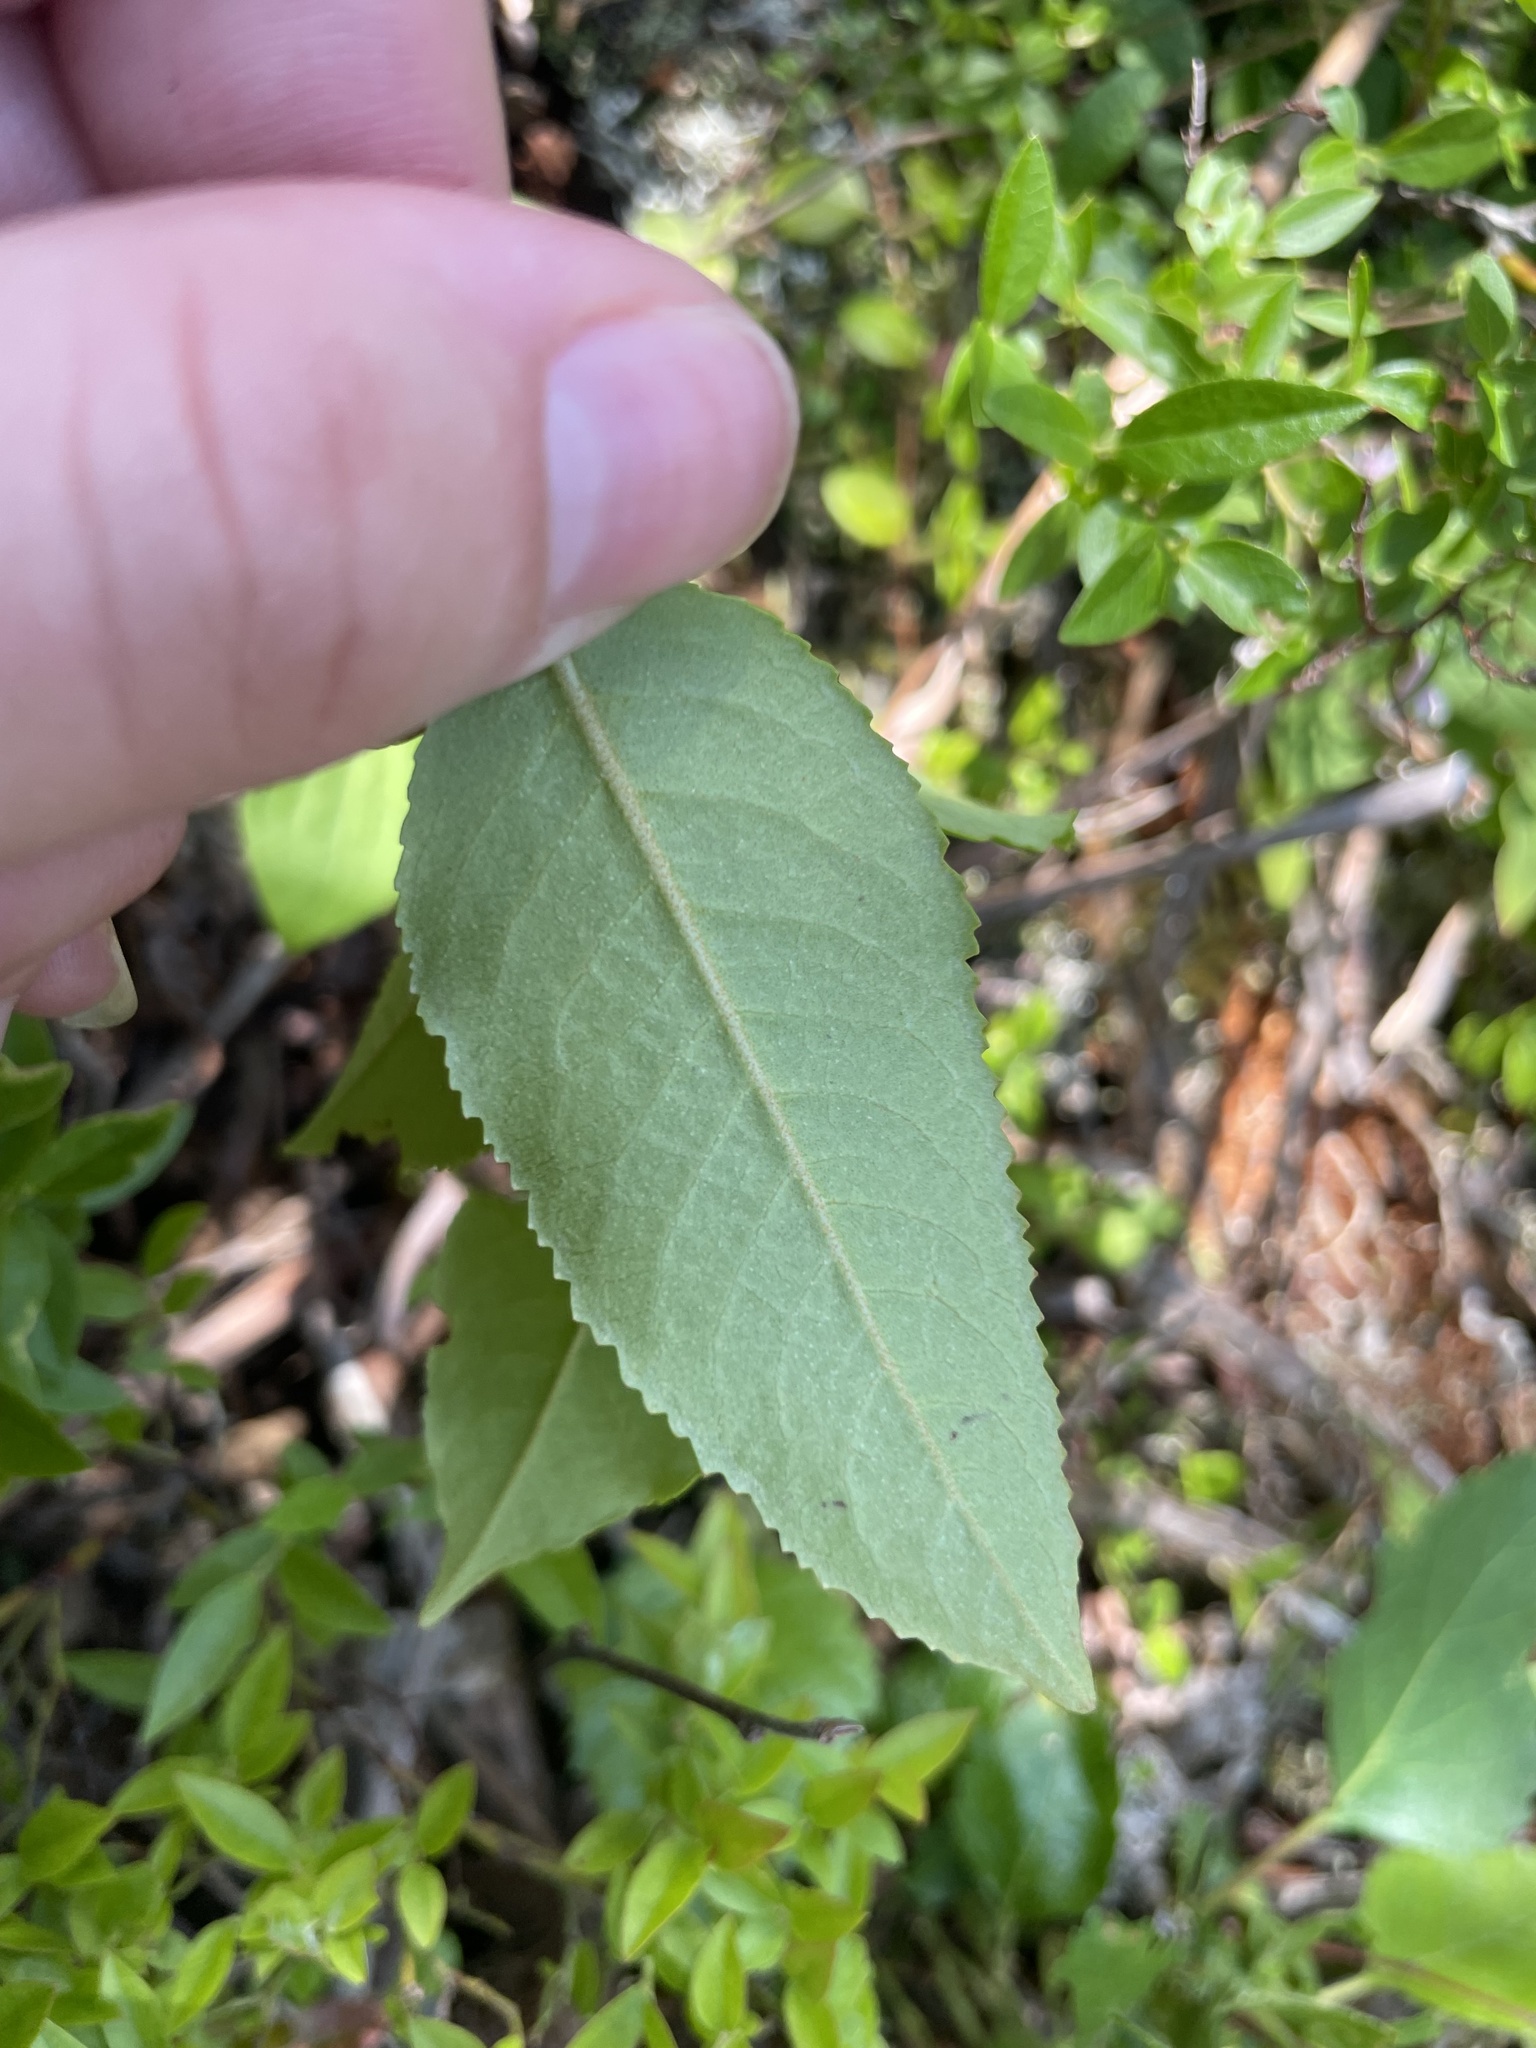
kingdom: Plantae
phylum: Tracheophyta
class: Magnoliopsida
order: Dipsacales
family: Viburnaceae
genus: Viburnum
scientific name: Viburnum cassinoides
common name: Swamp haw
